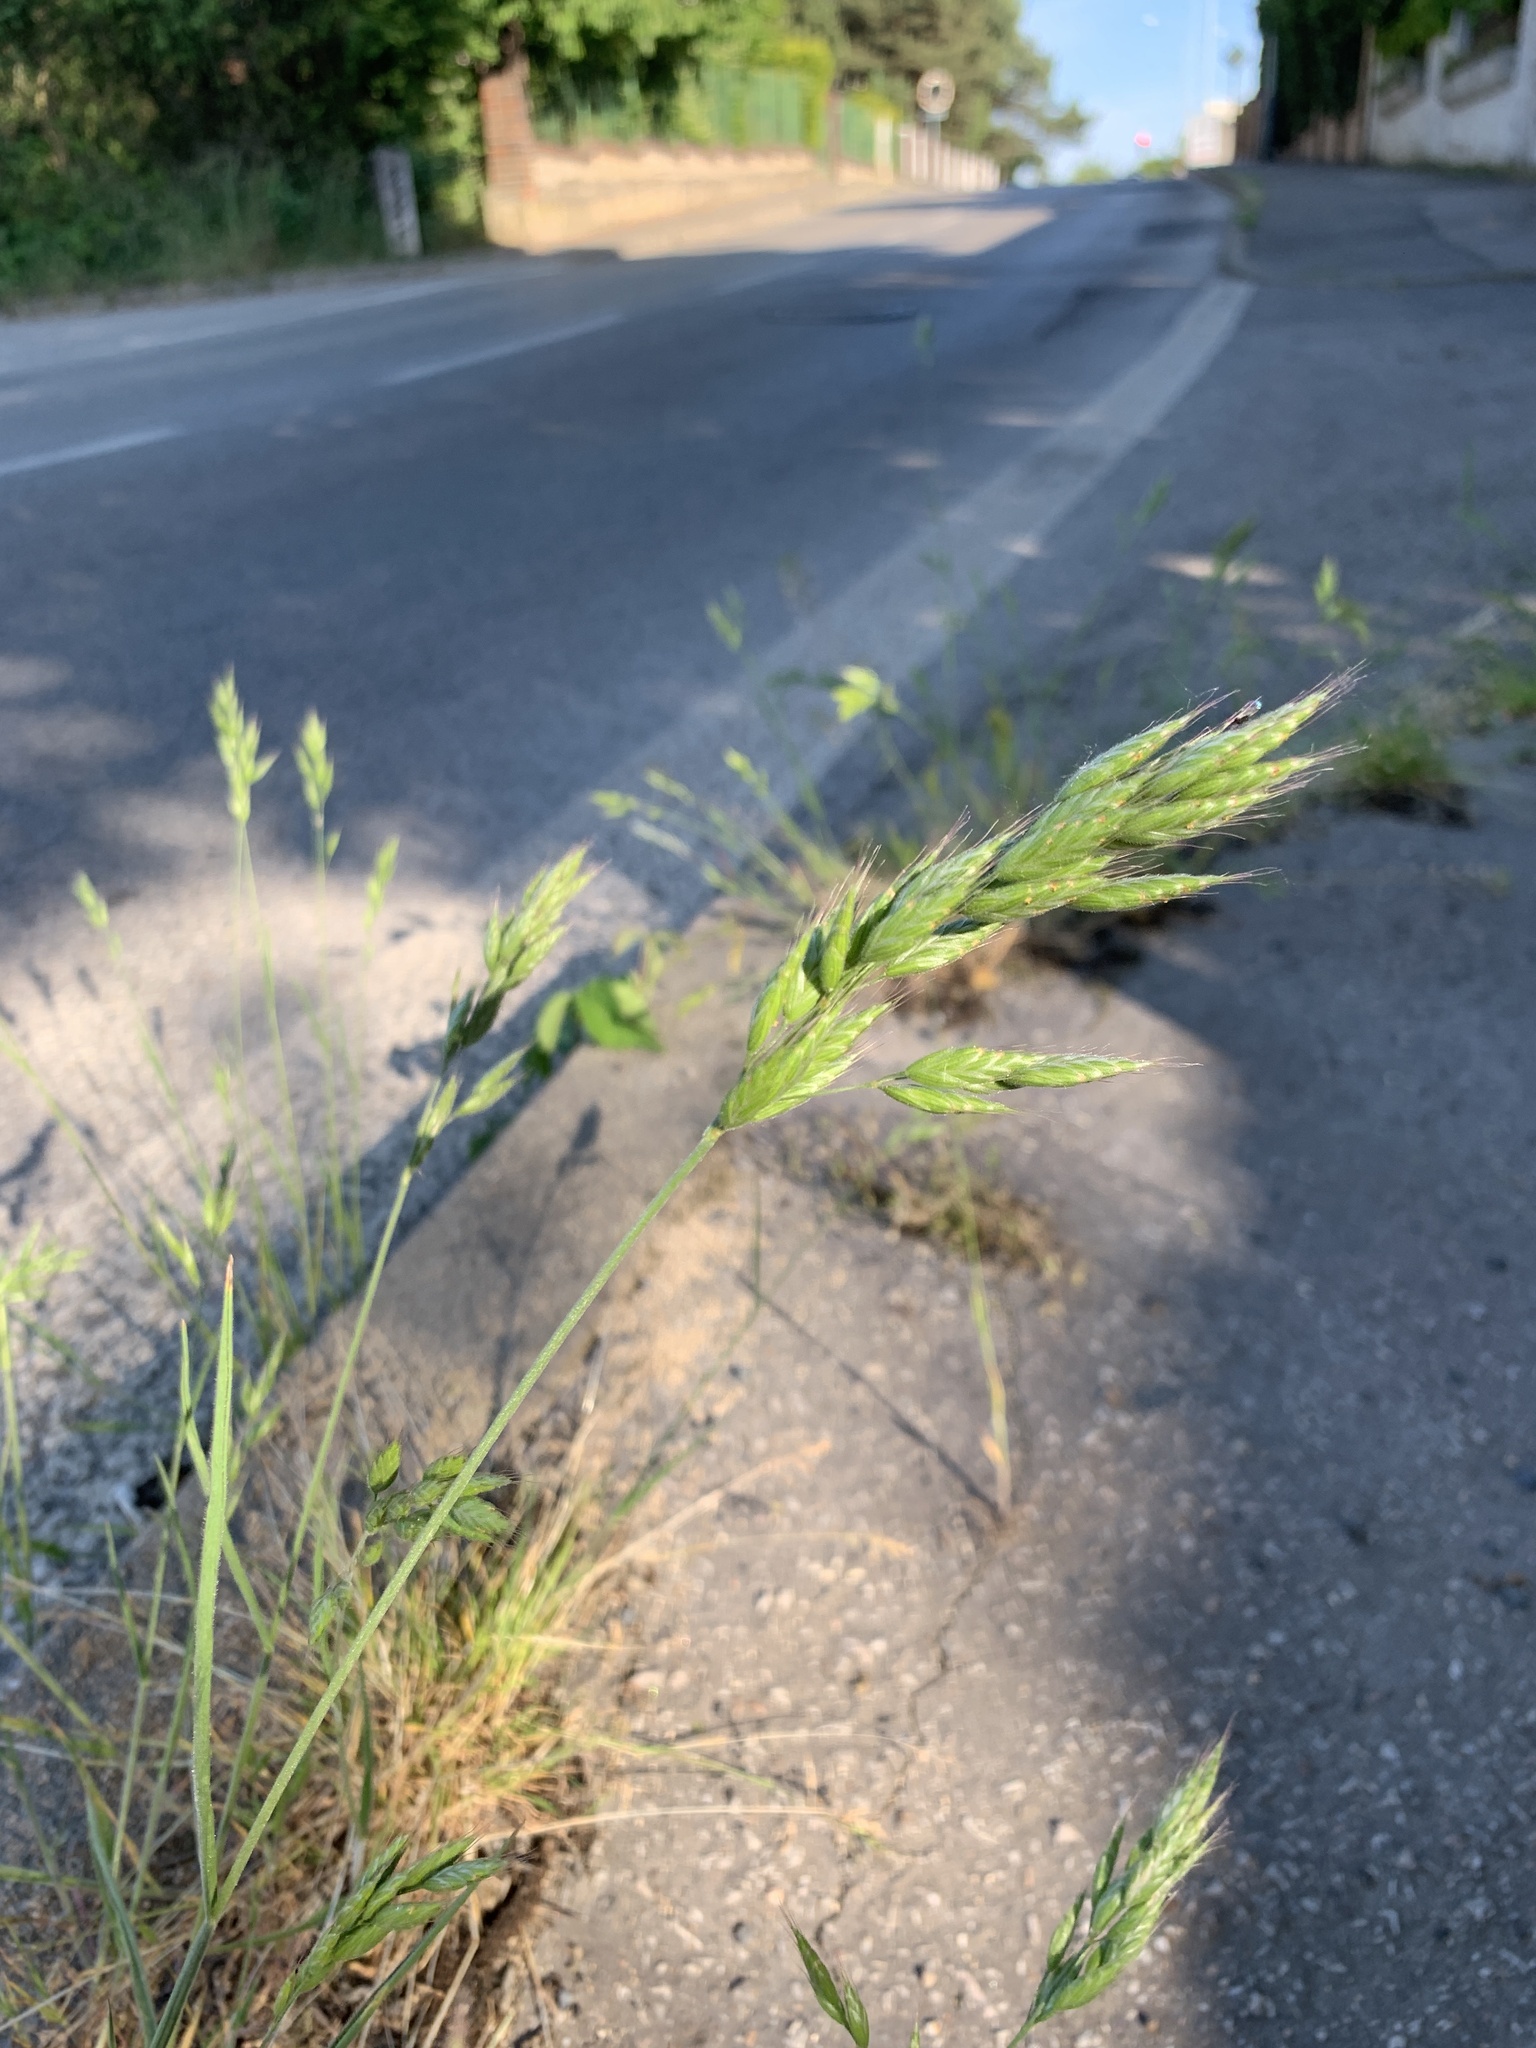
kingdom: Plantae
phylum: Tracheophyta
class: Liliopsida
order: Poales
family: Poaceae
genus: Bromus
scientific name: Bromus hordeaceus
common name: Soft brome
